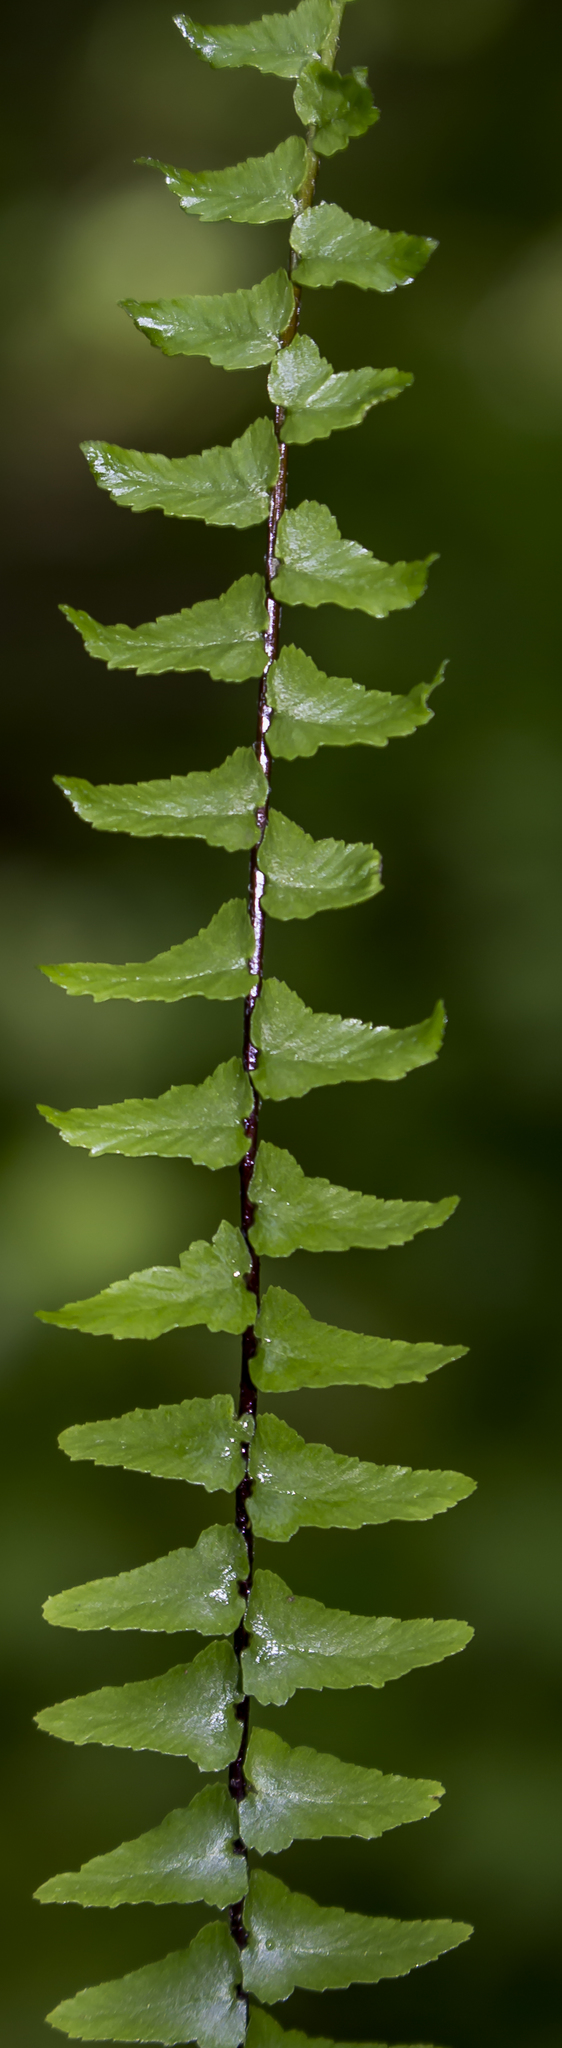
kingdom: Plantae
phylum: Tracheophyta
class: Polypodiopsida
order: Polypodiales
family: Aspleniaceae
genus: Asplenium
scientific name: Asplenium platyneuron
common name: Ebony spleenwort
